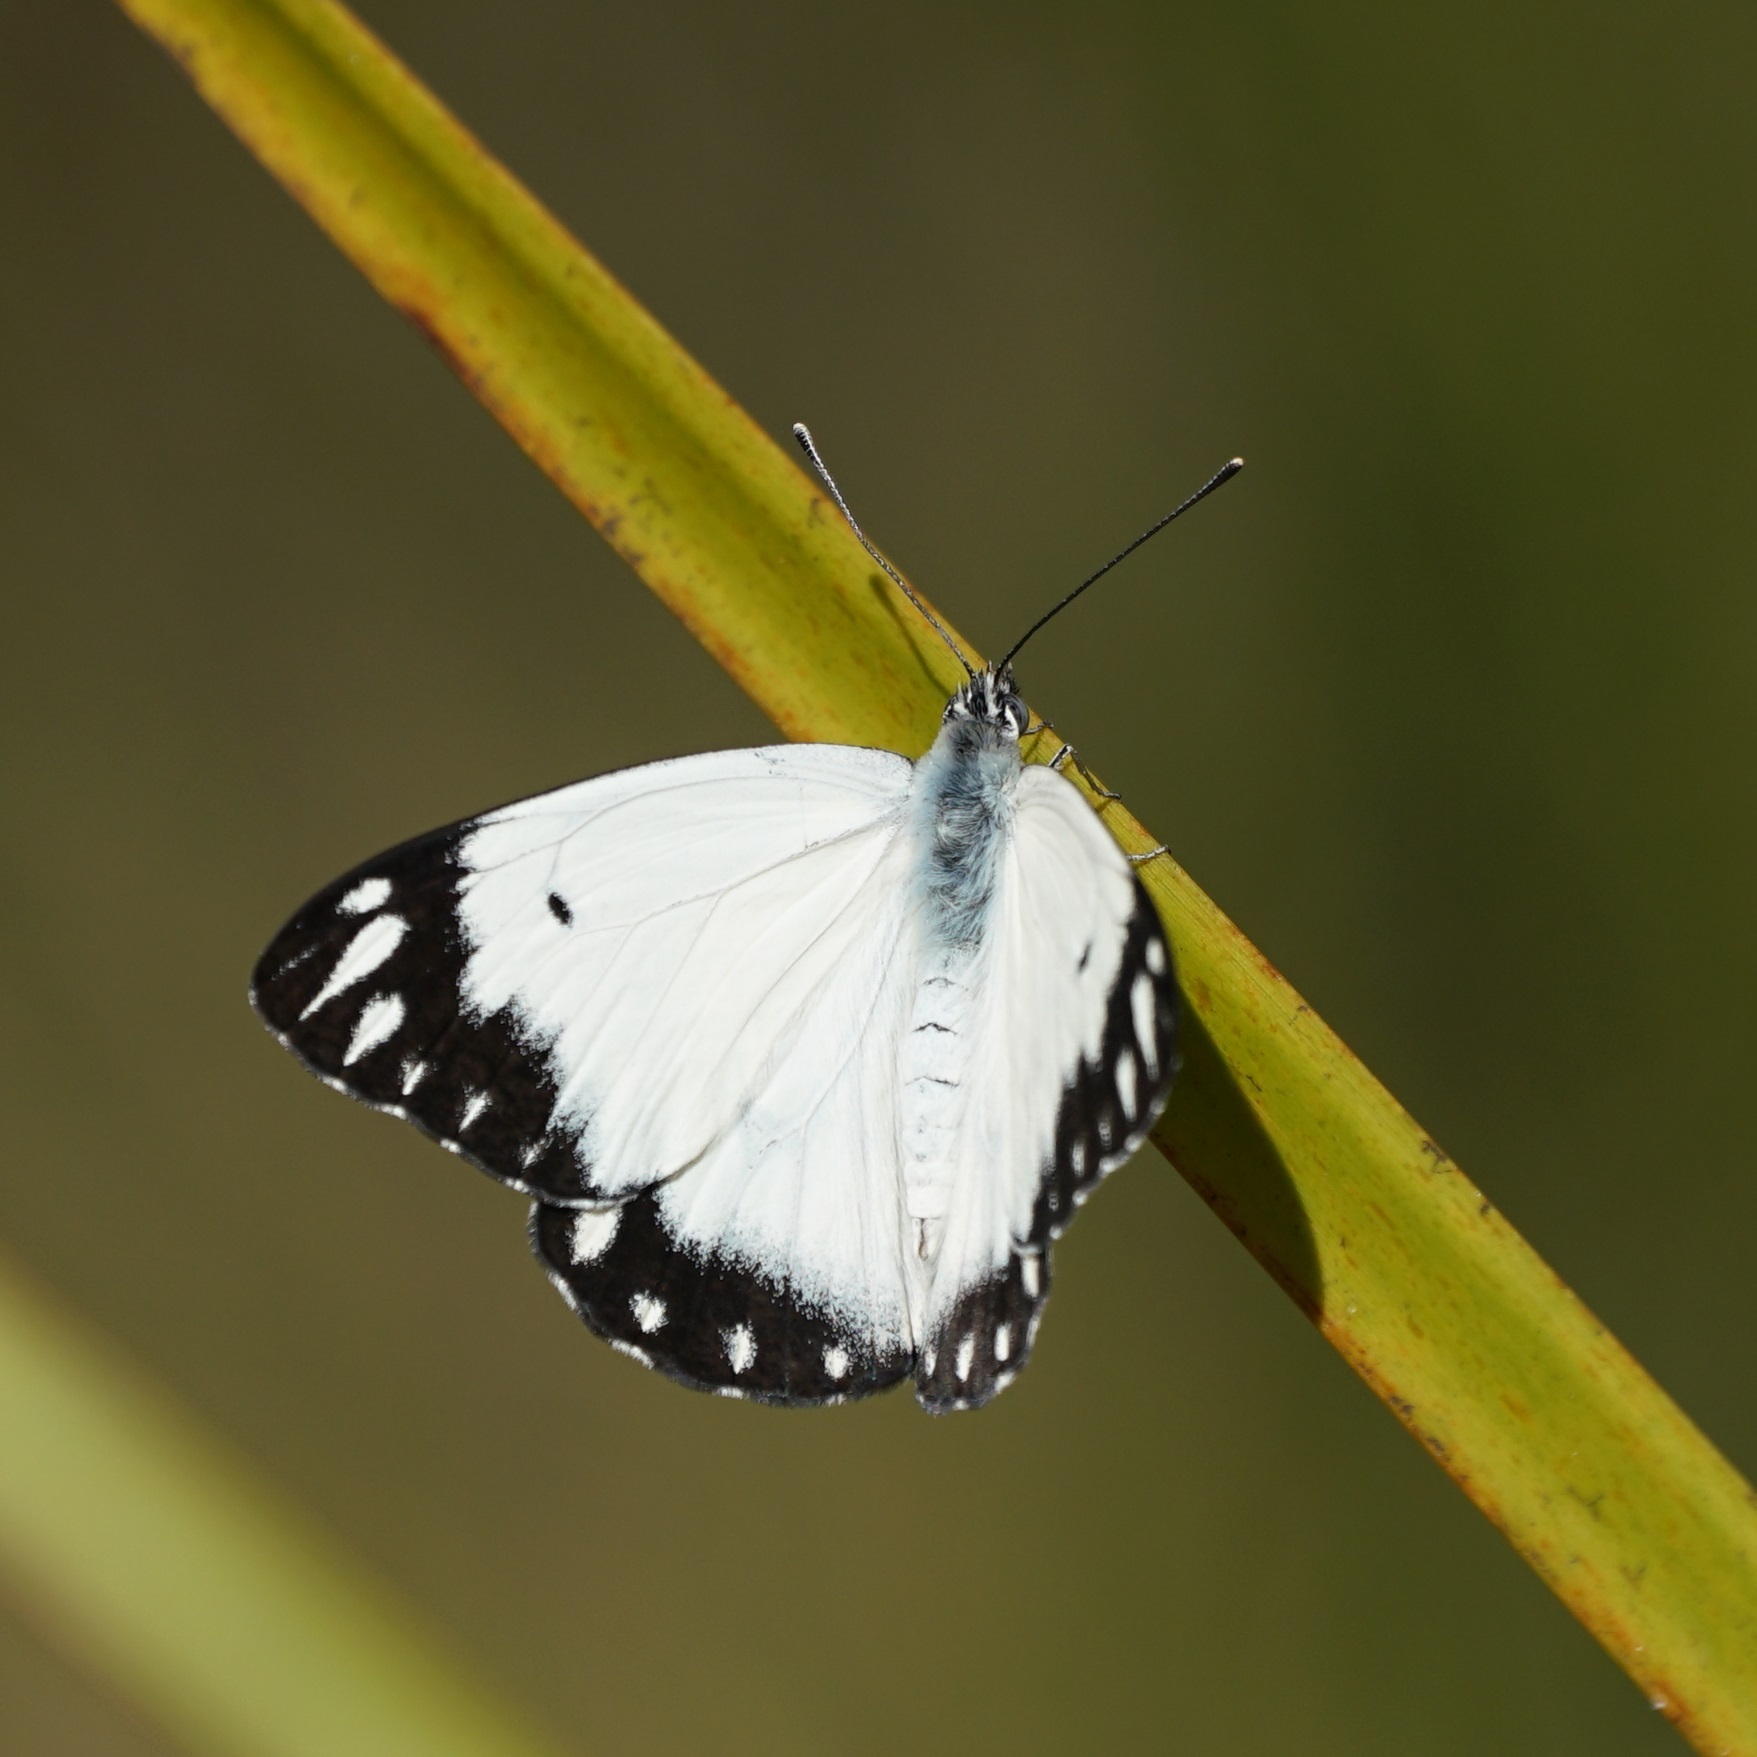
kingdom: Animalia
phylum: Arthropoda
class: Insecta
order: Lepidoptera
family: Pieridae
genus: Belenois
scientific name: Belenois java
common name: Caper white
